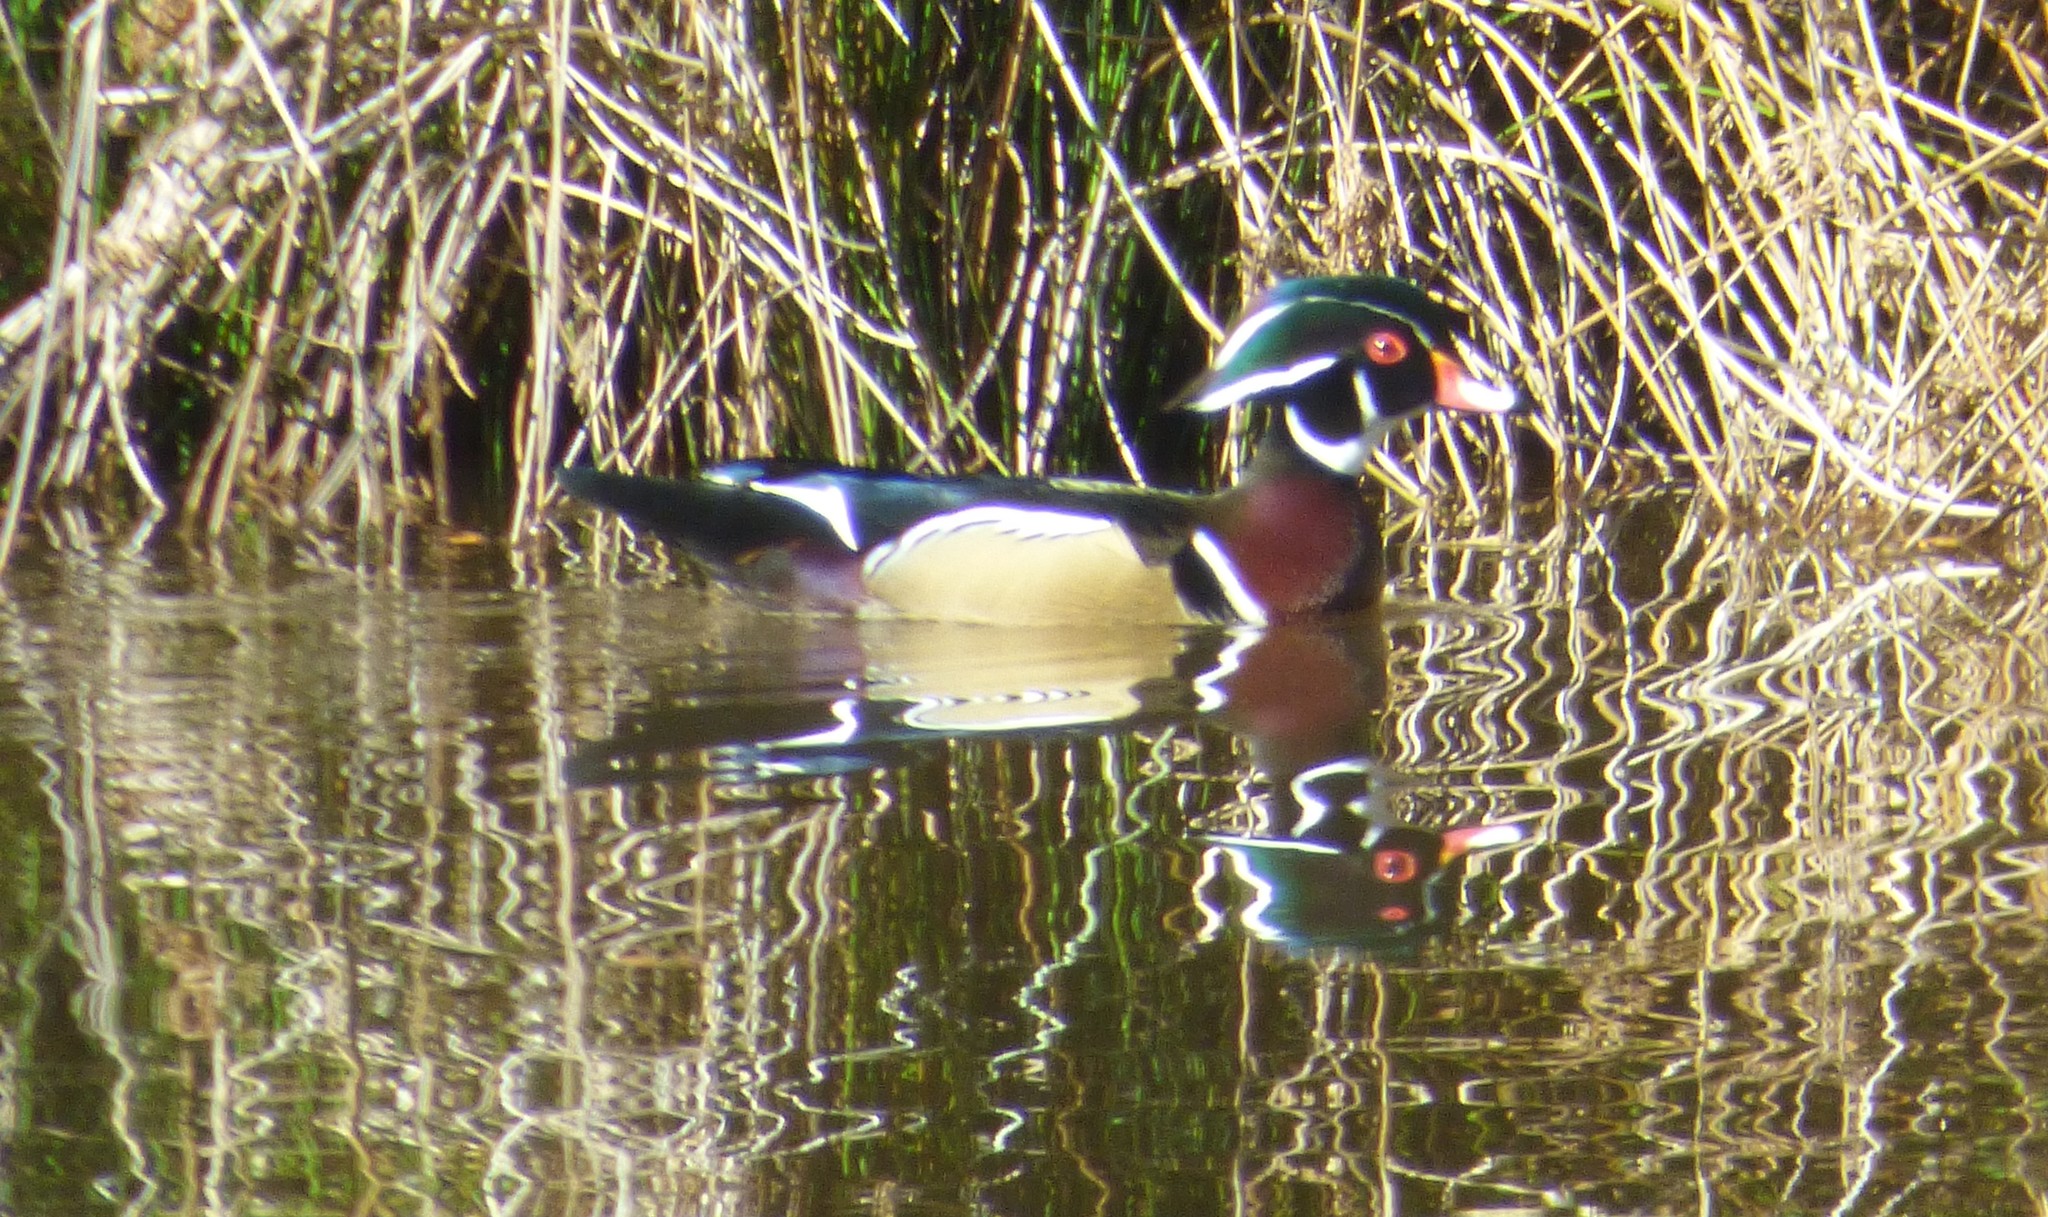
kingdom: Animalia
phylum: Chordata
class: Aves
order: Anseriformes
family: Anatidae
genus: Aix
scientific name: Aix sponsa
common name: Wood duck
